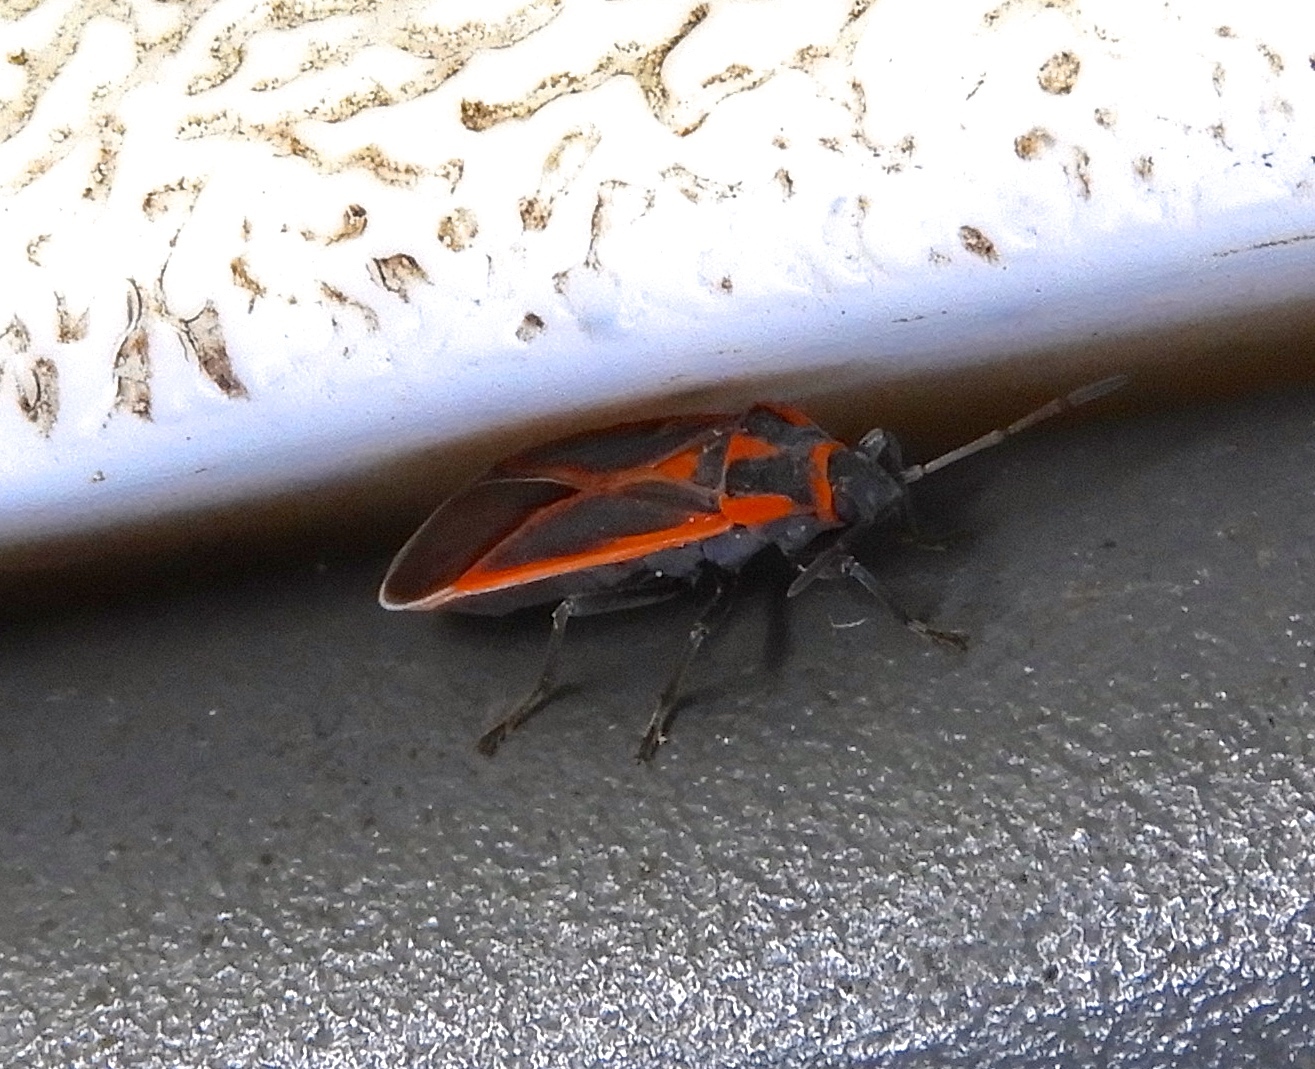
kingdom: Animalia
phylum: Arthropoda
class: Insecta
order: Hemiptera
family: Lygaeidae
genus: Melacoryphus
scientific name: Melacoryphus circumlitus
